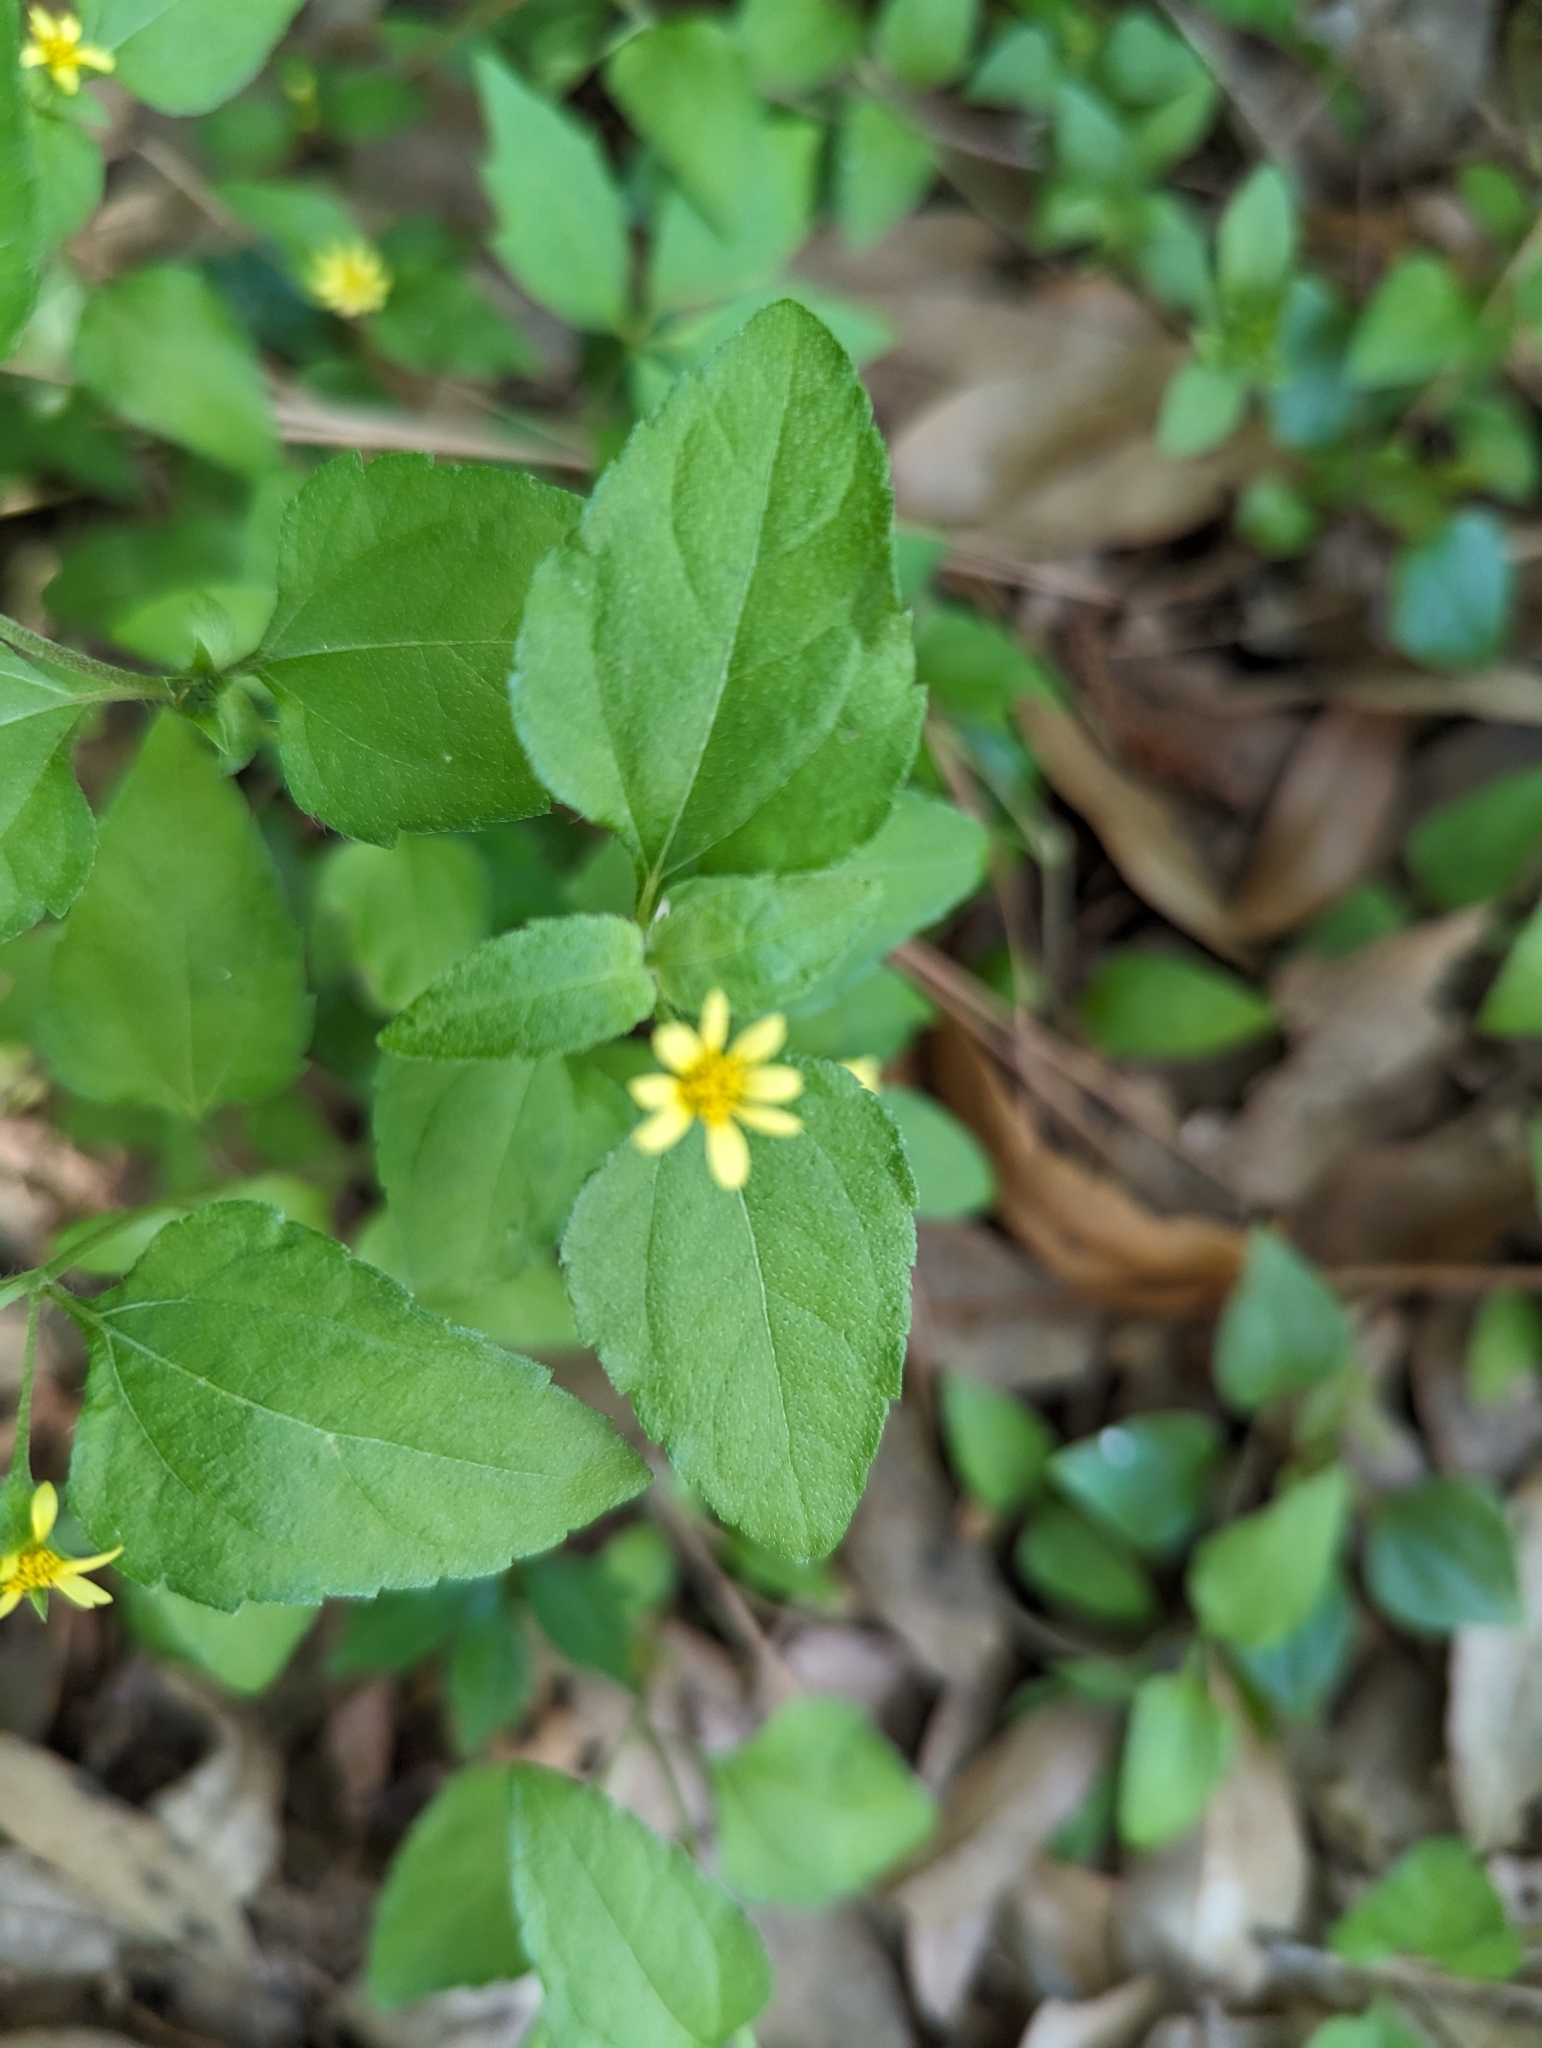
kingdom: Plantae
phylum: Tracheophyta
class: Magnoliopsida
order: Asterales
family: Asteraceae
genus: Calyptocarpus
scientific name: Calyptocarpus vialis
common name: Straggler daisy
